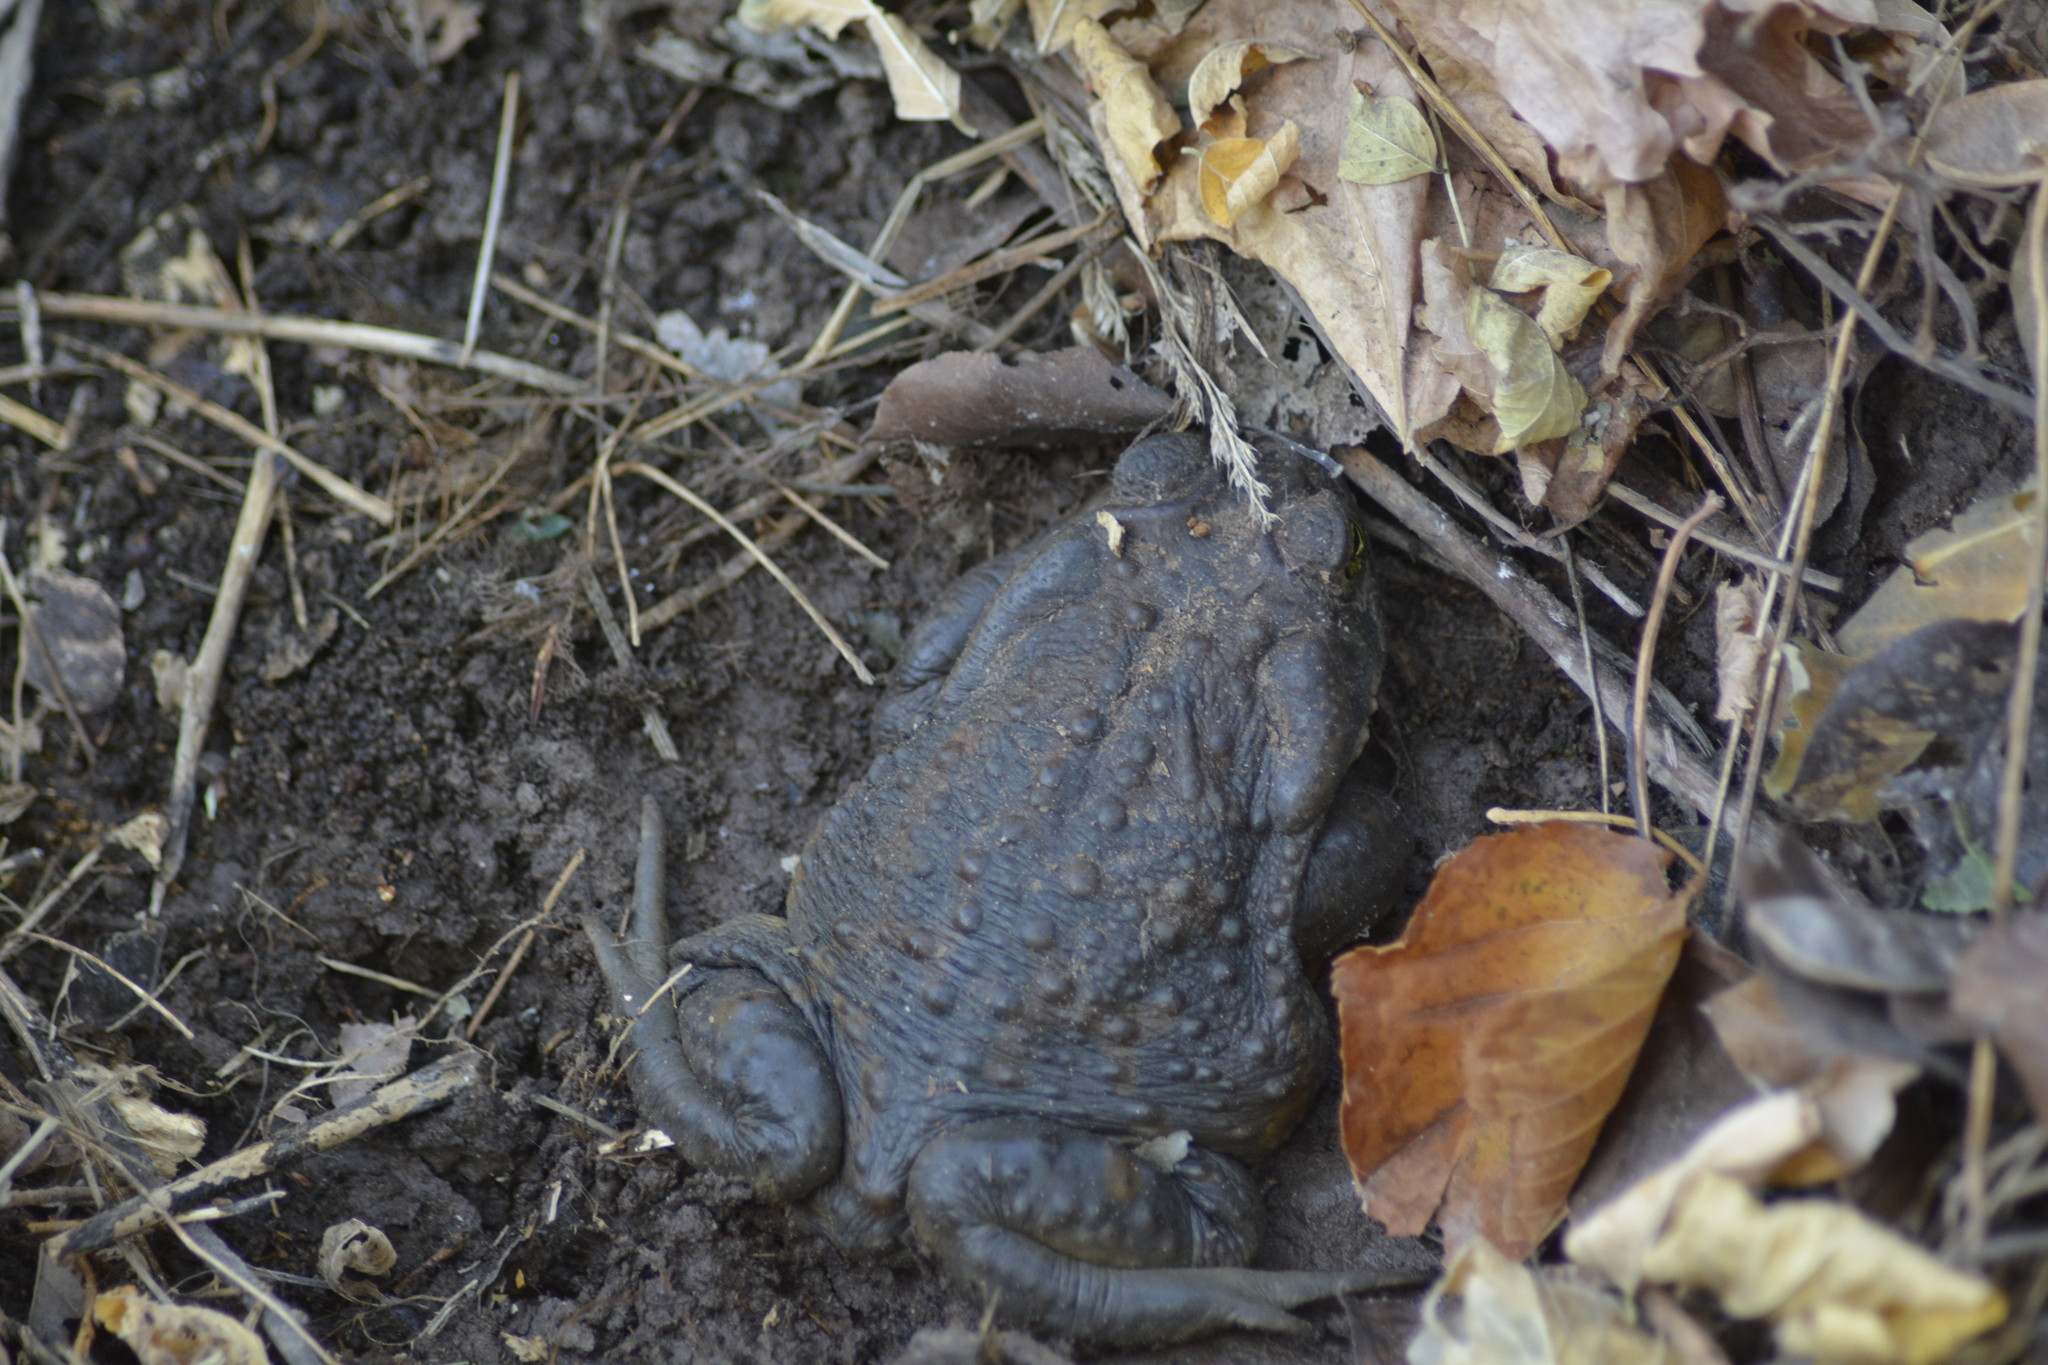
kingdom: Animalia
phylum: Chordata
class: Amphibia
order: Anura
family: Bufonidae
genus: Rhinella
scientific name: Rhinella arenarum
